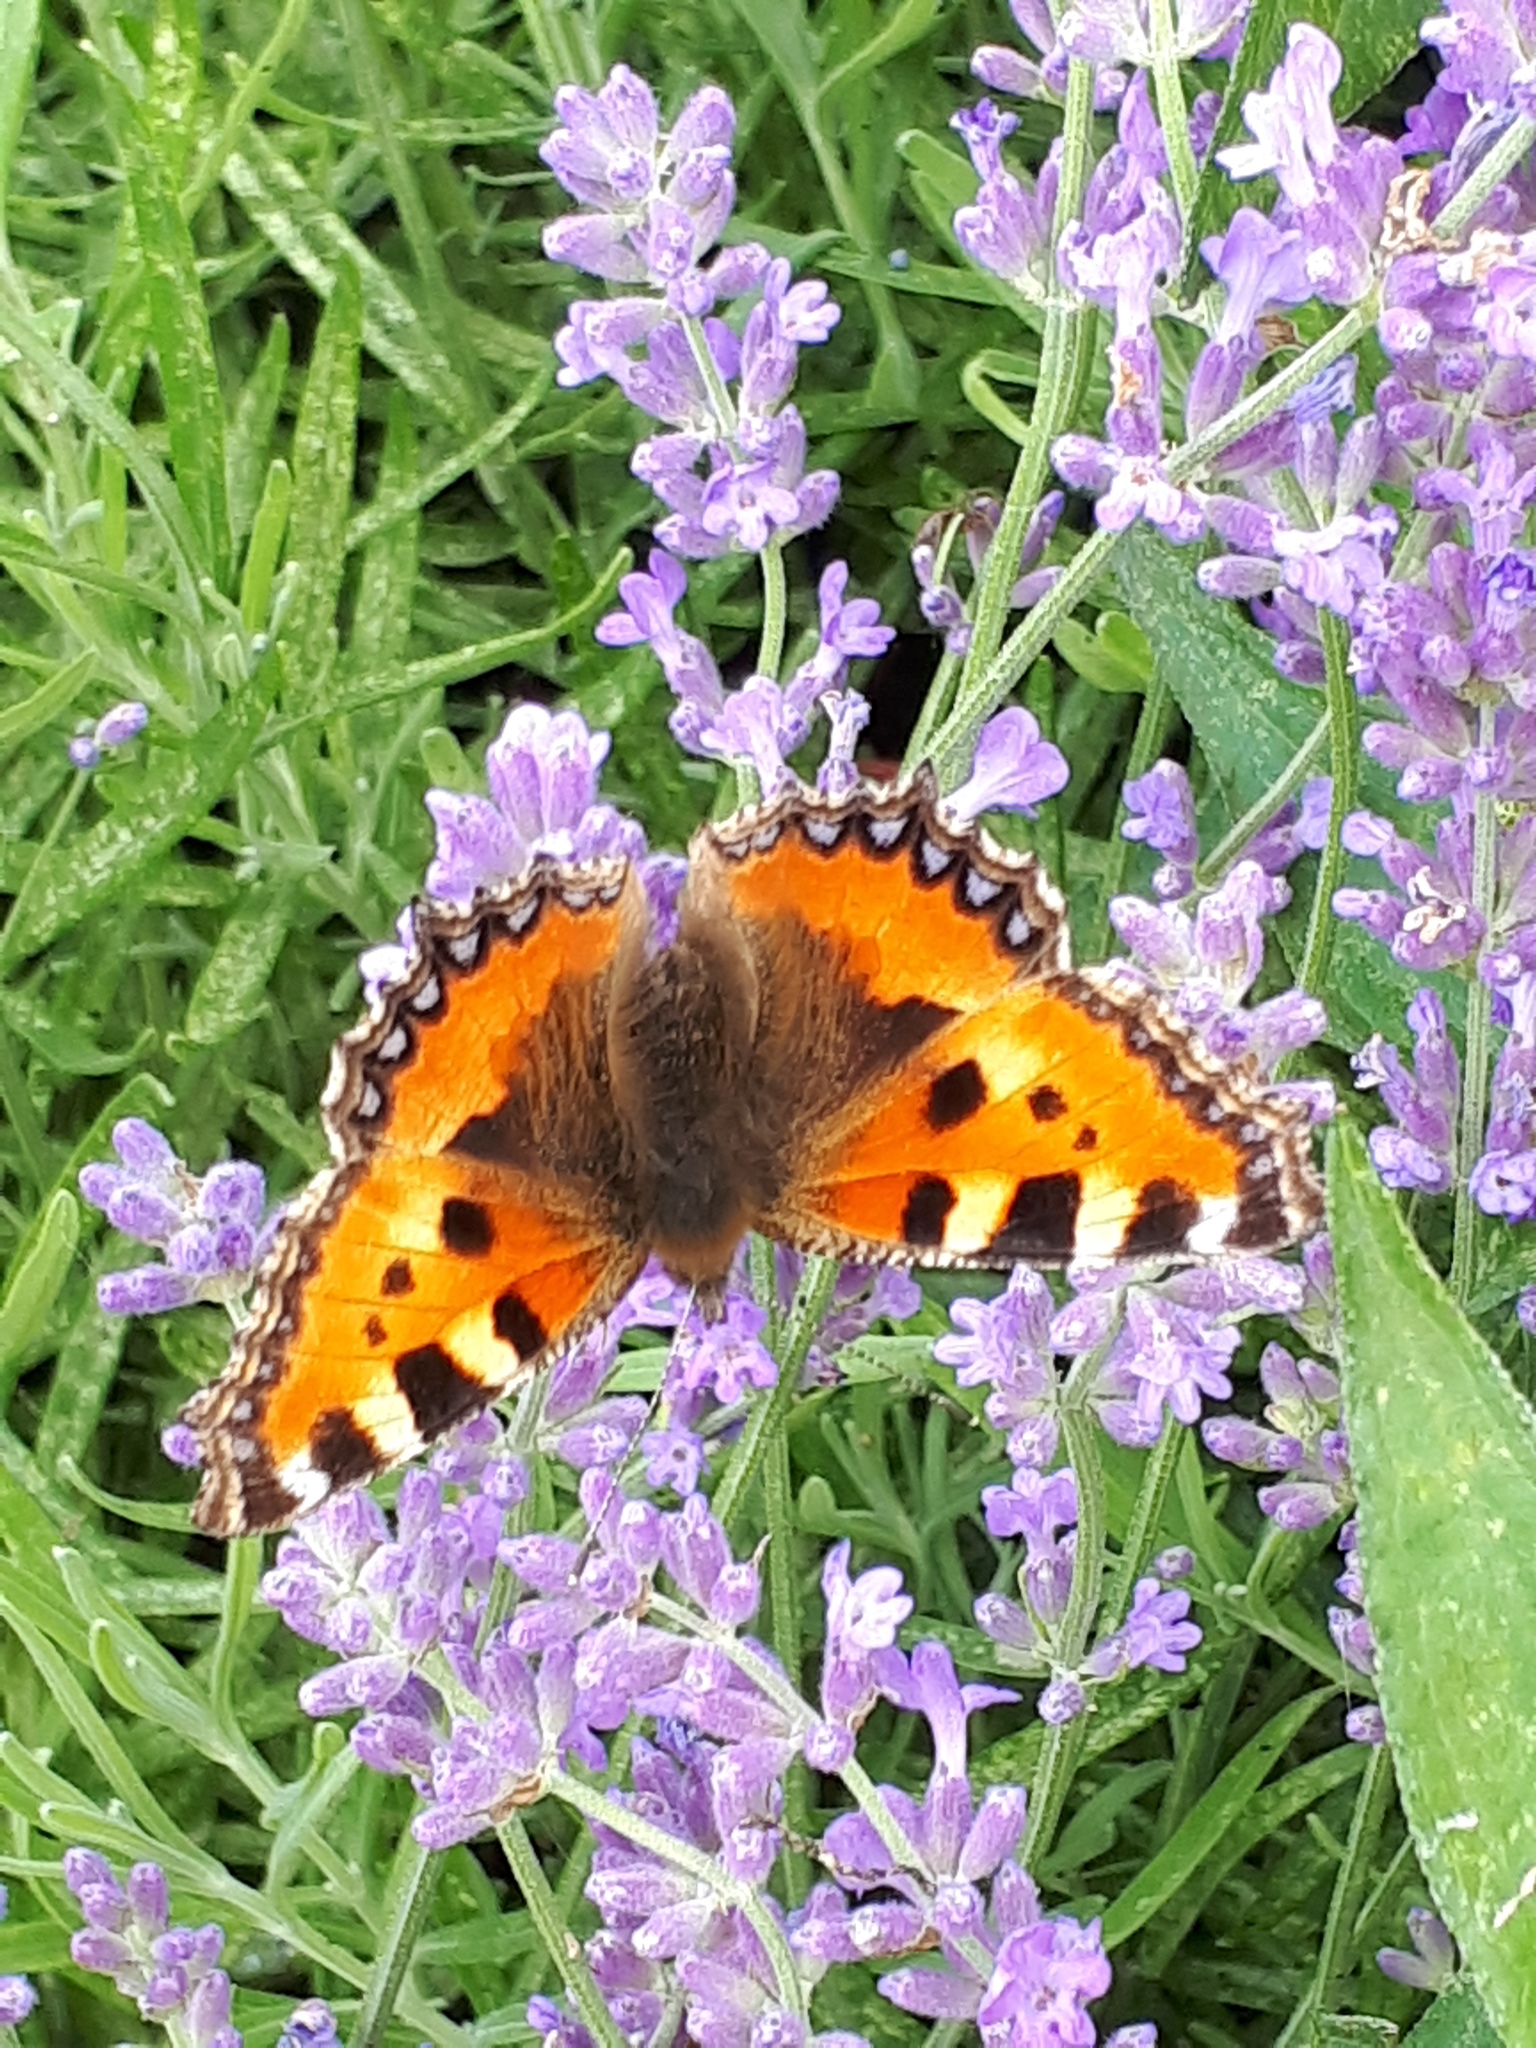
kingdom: Animalia
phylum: Arthropoda
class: Insecta
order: Lepidoptera
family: Nymphalidae
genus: Aglais
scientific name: Aglais urticae
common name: Small tortoiseshell
